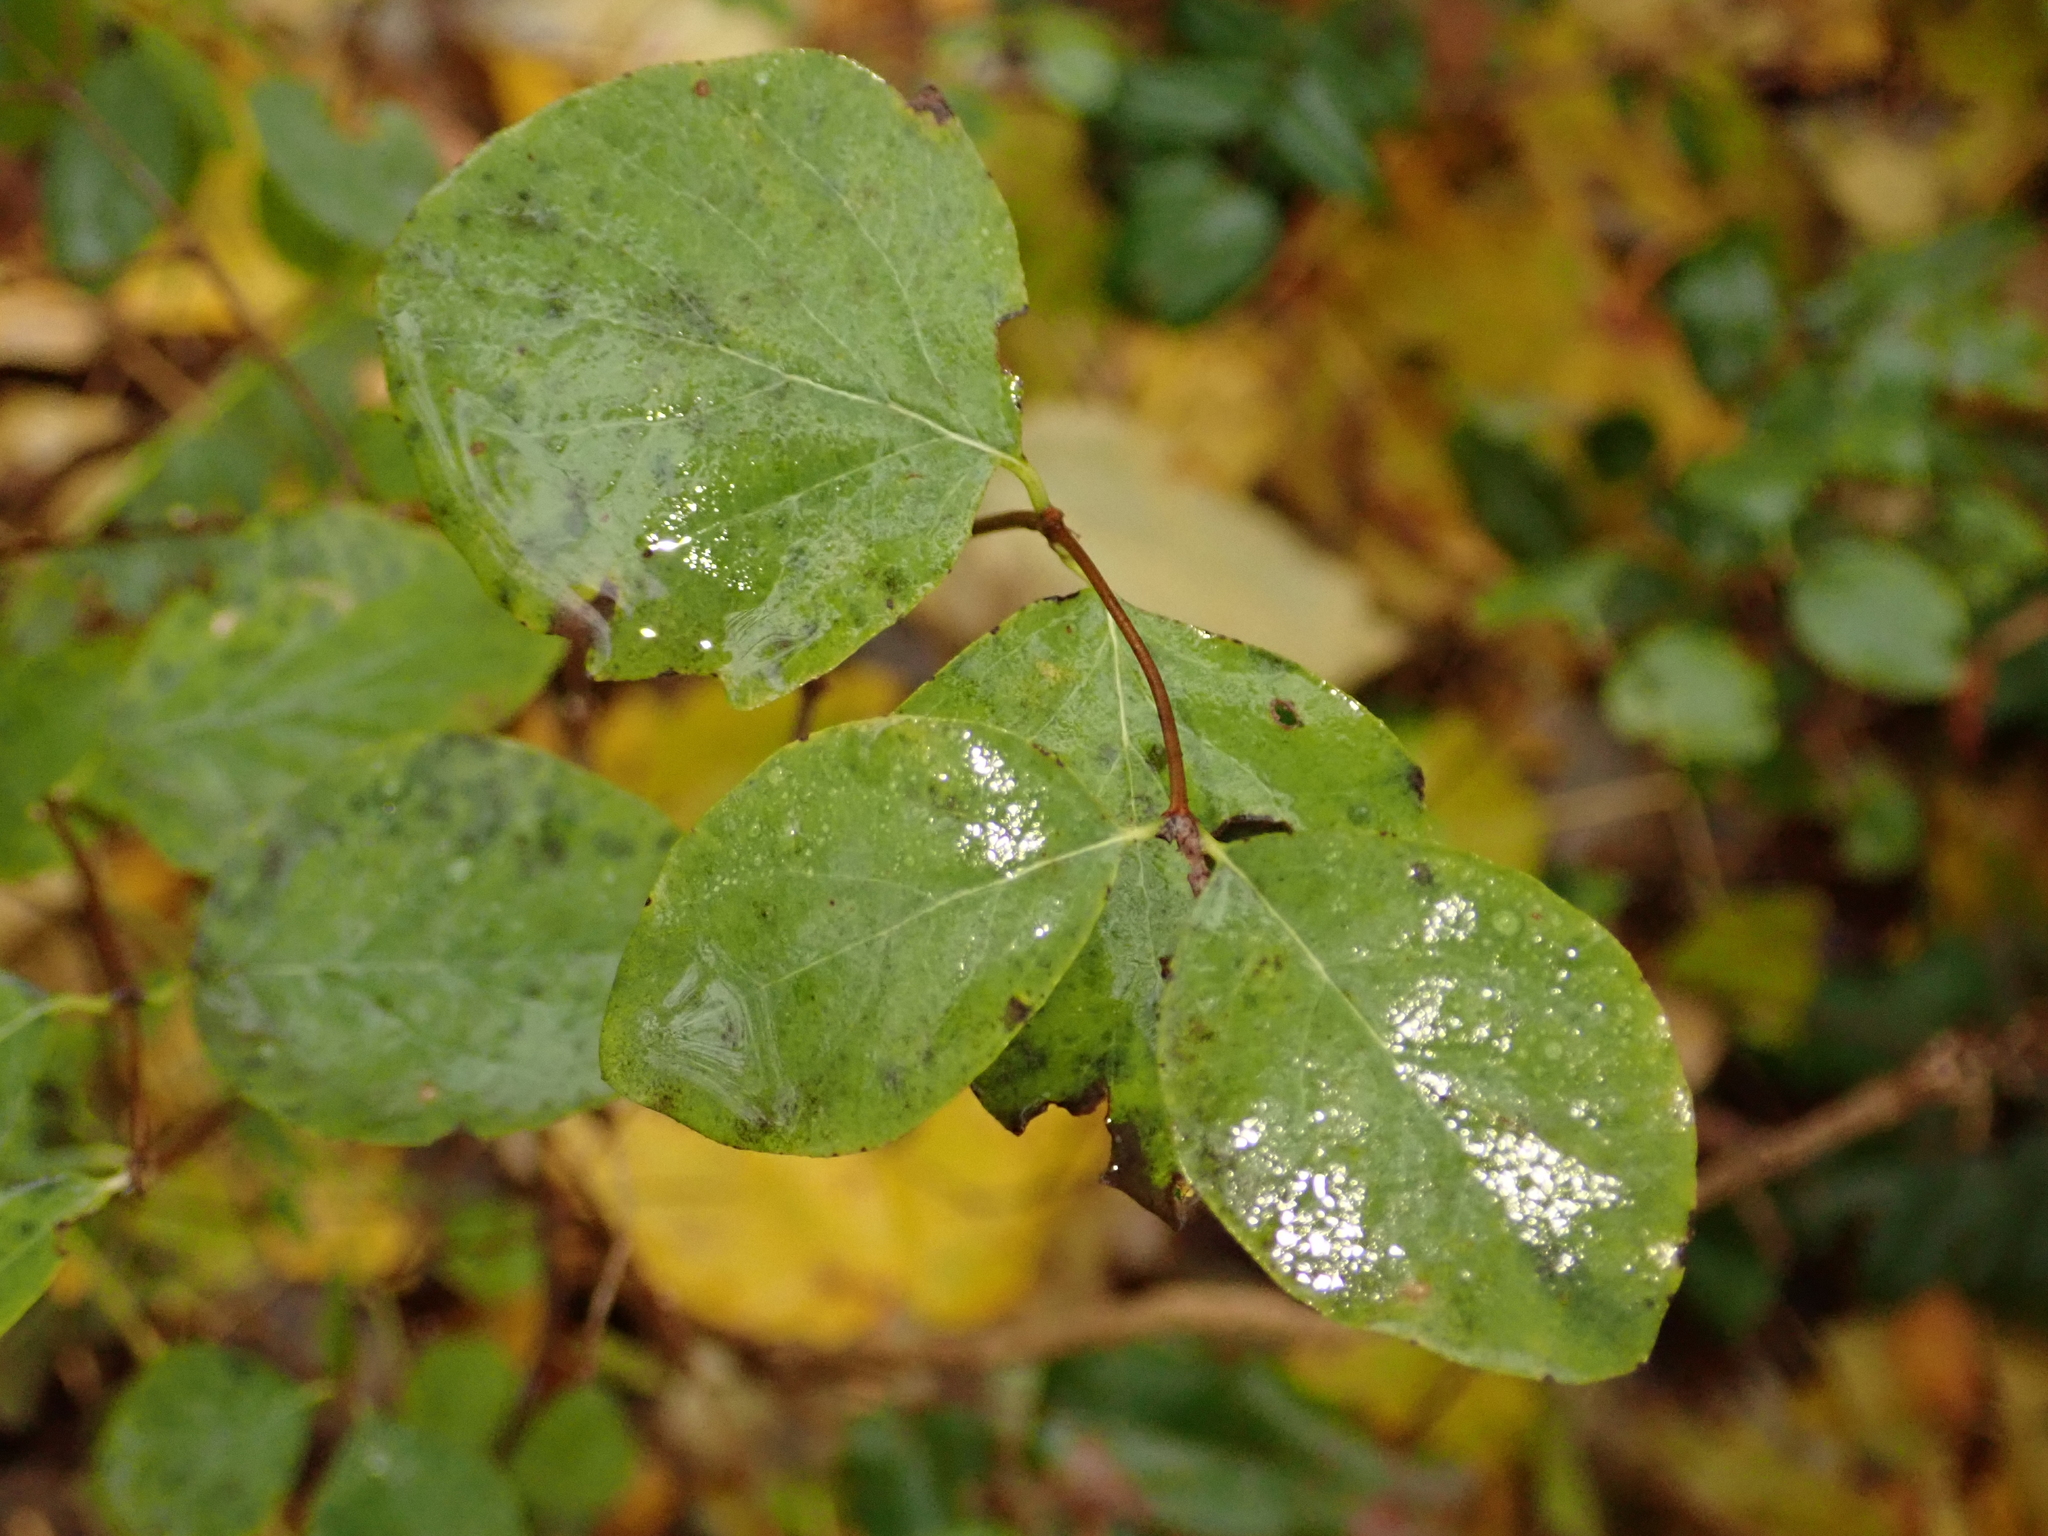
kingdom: Plantae
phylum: Tracheophyta
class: Magnoliopsida
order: Dipsacales
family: Caprifoliaceae
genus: Symphoricarpos
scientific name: Symphoricarpos albus
